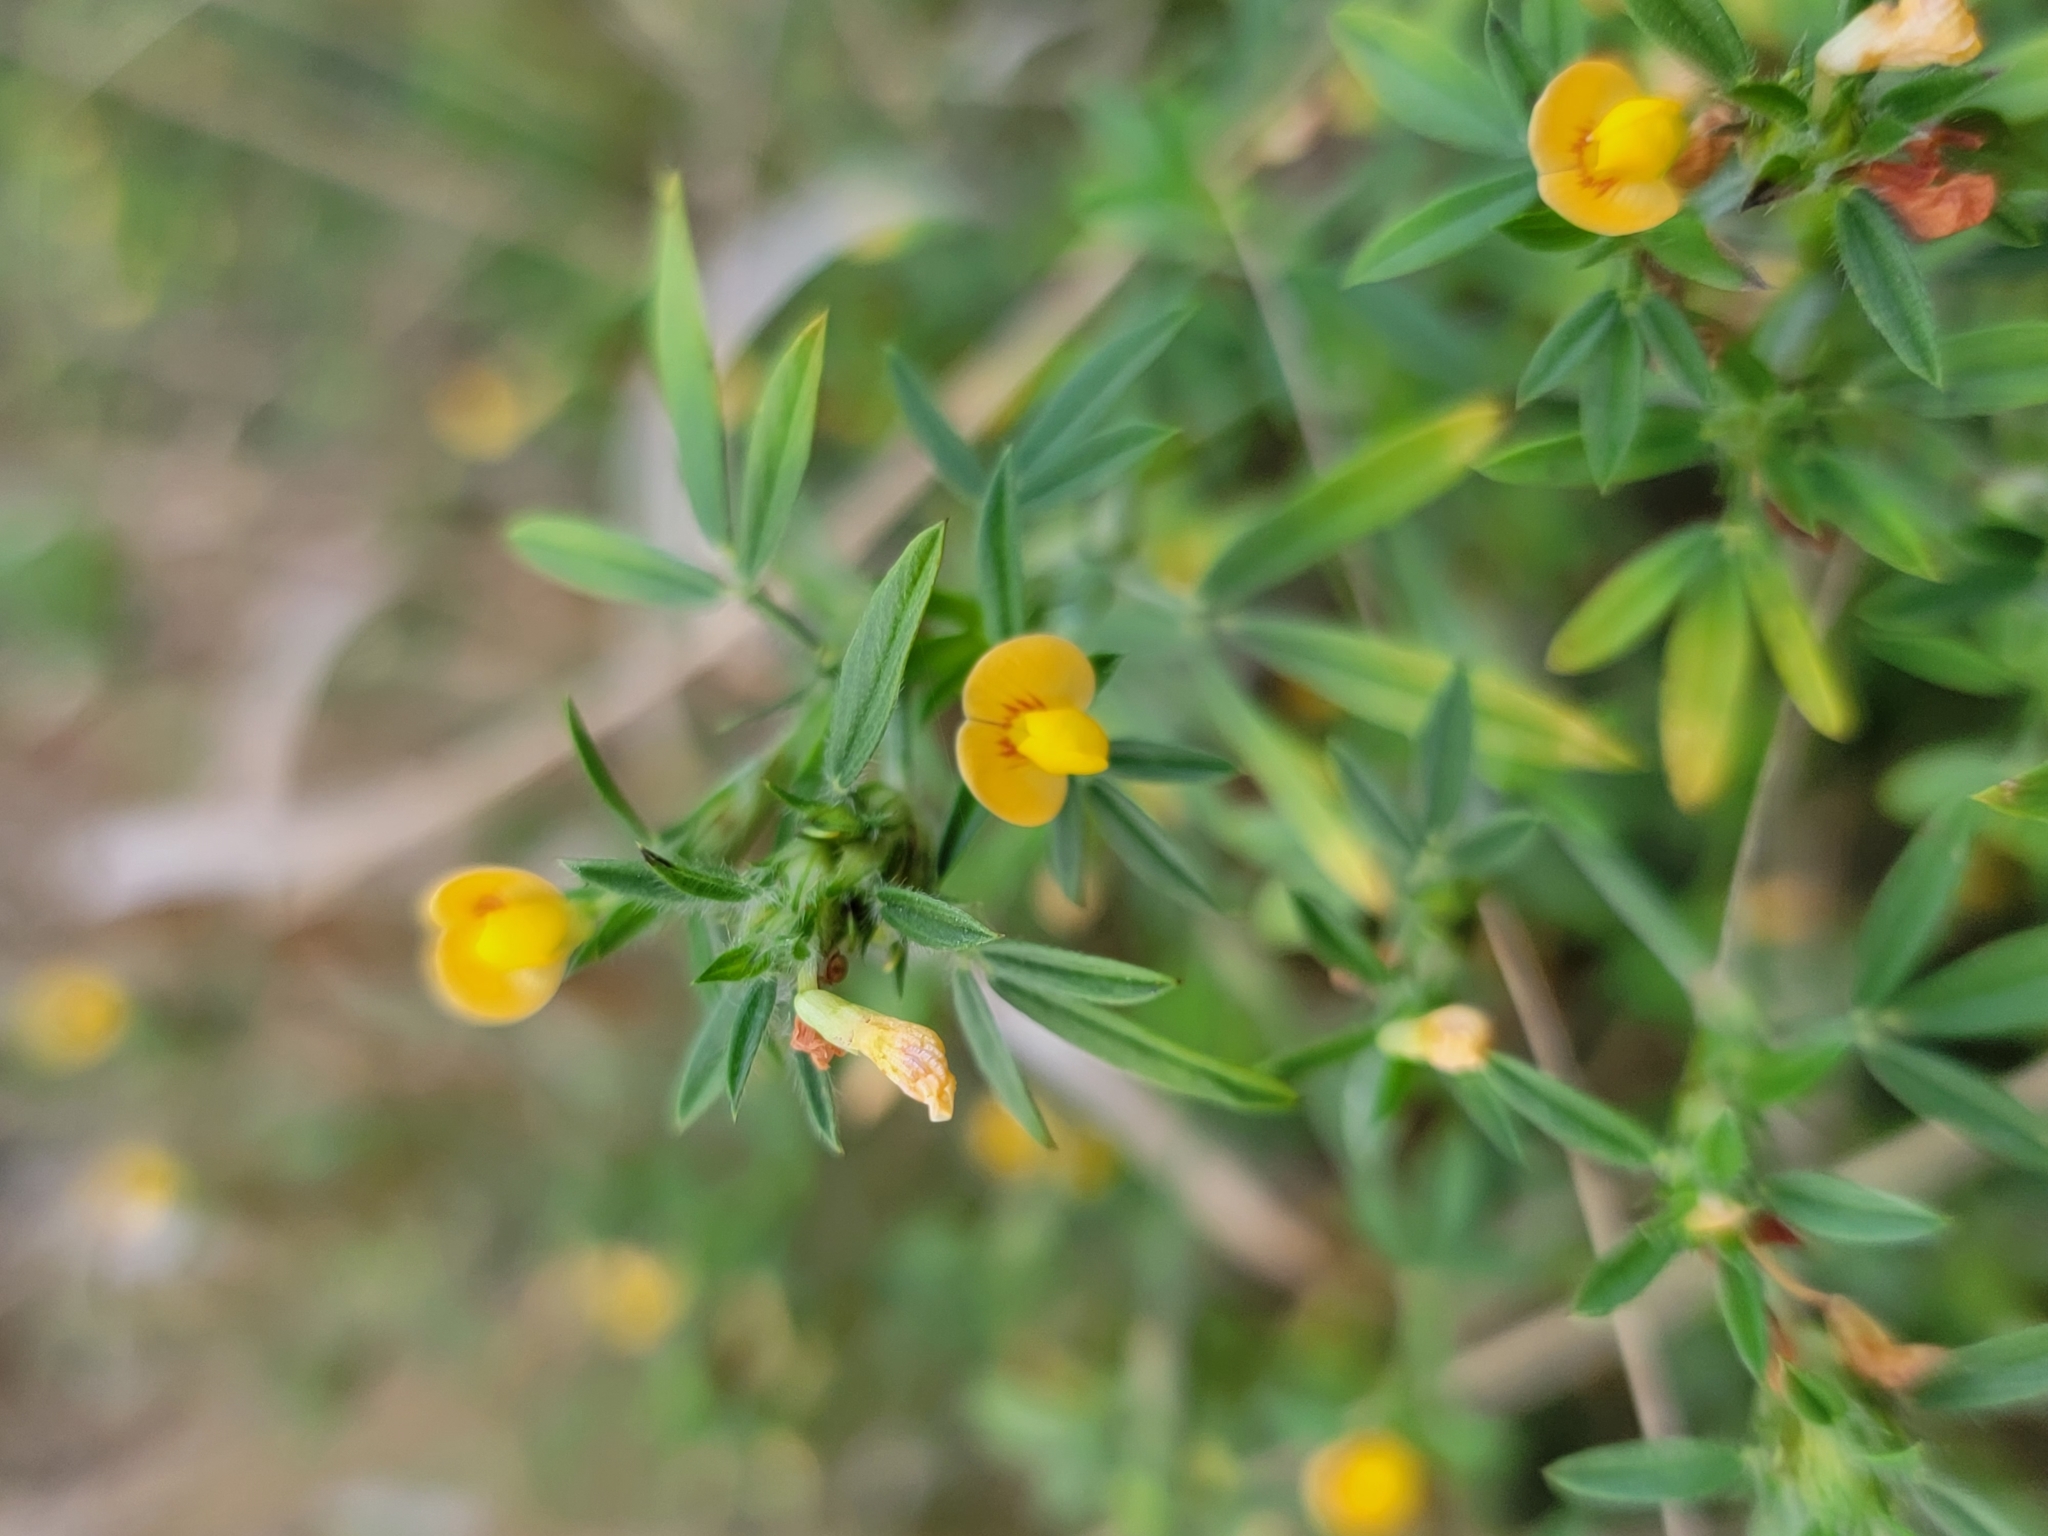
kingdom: Plantae
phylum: Tracheophyta
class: Magnoliopsida
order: Fabales
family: Fabaceae
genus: Stylosanthes
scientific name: Stylosanthes hamata
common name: Cheesytoes
